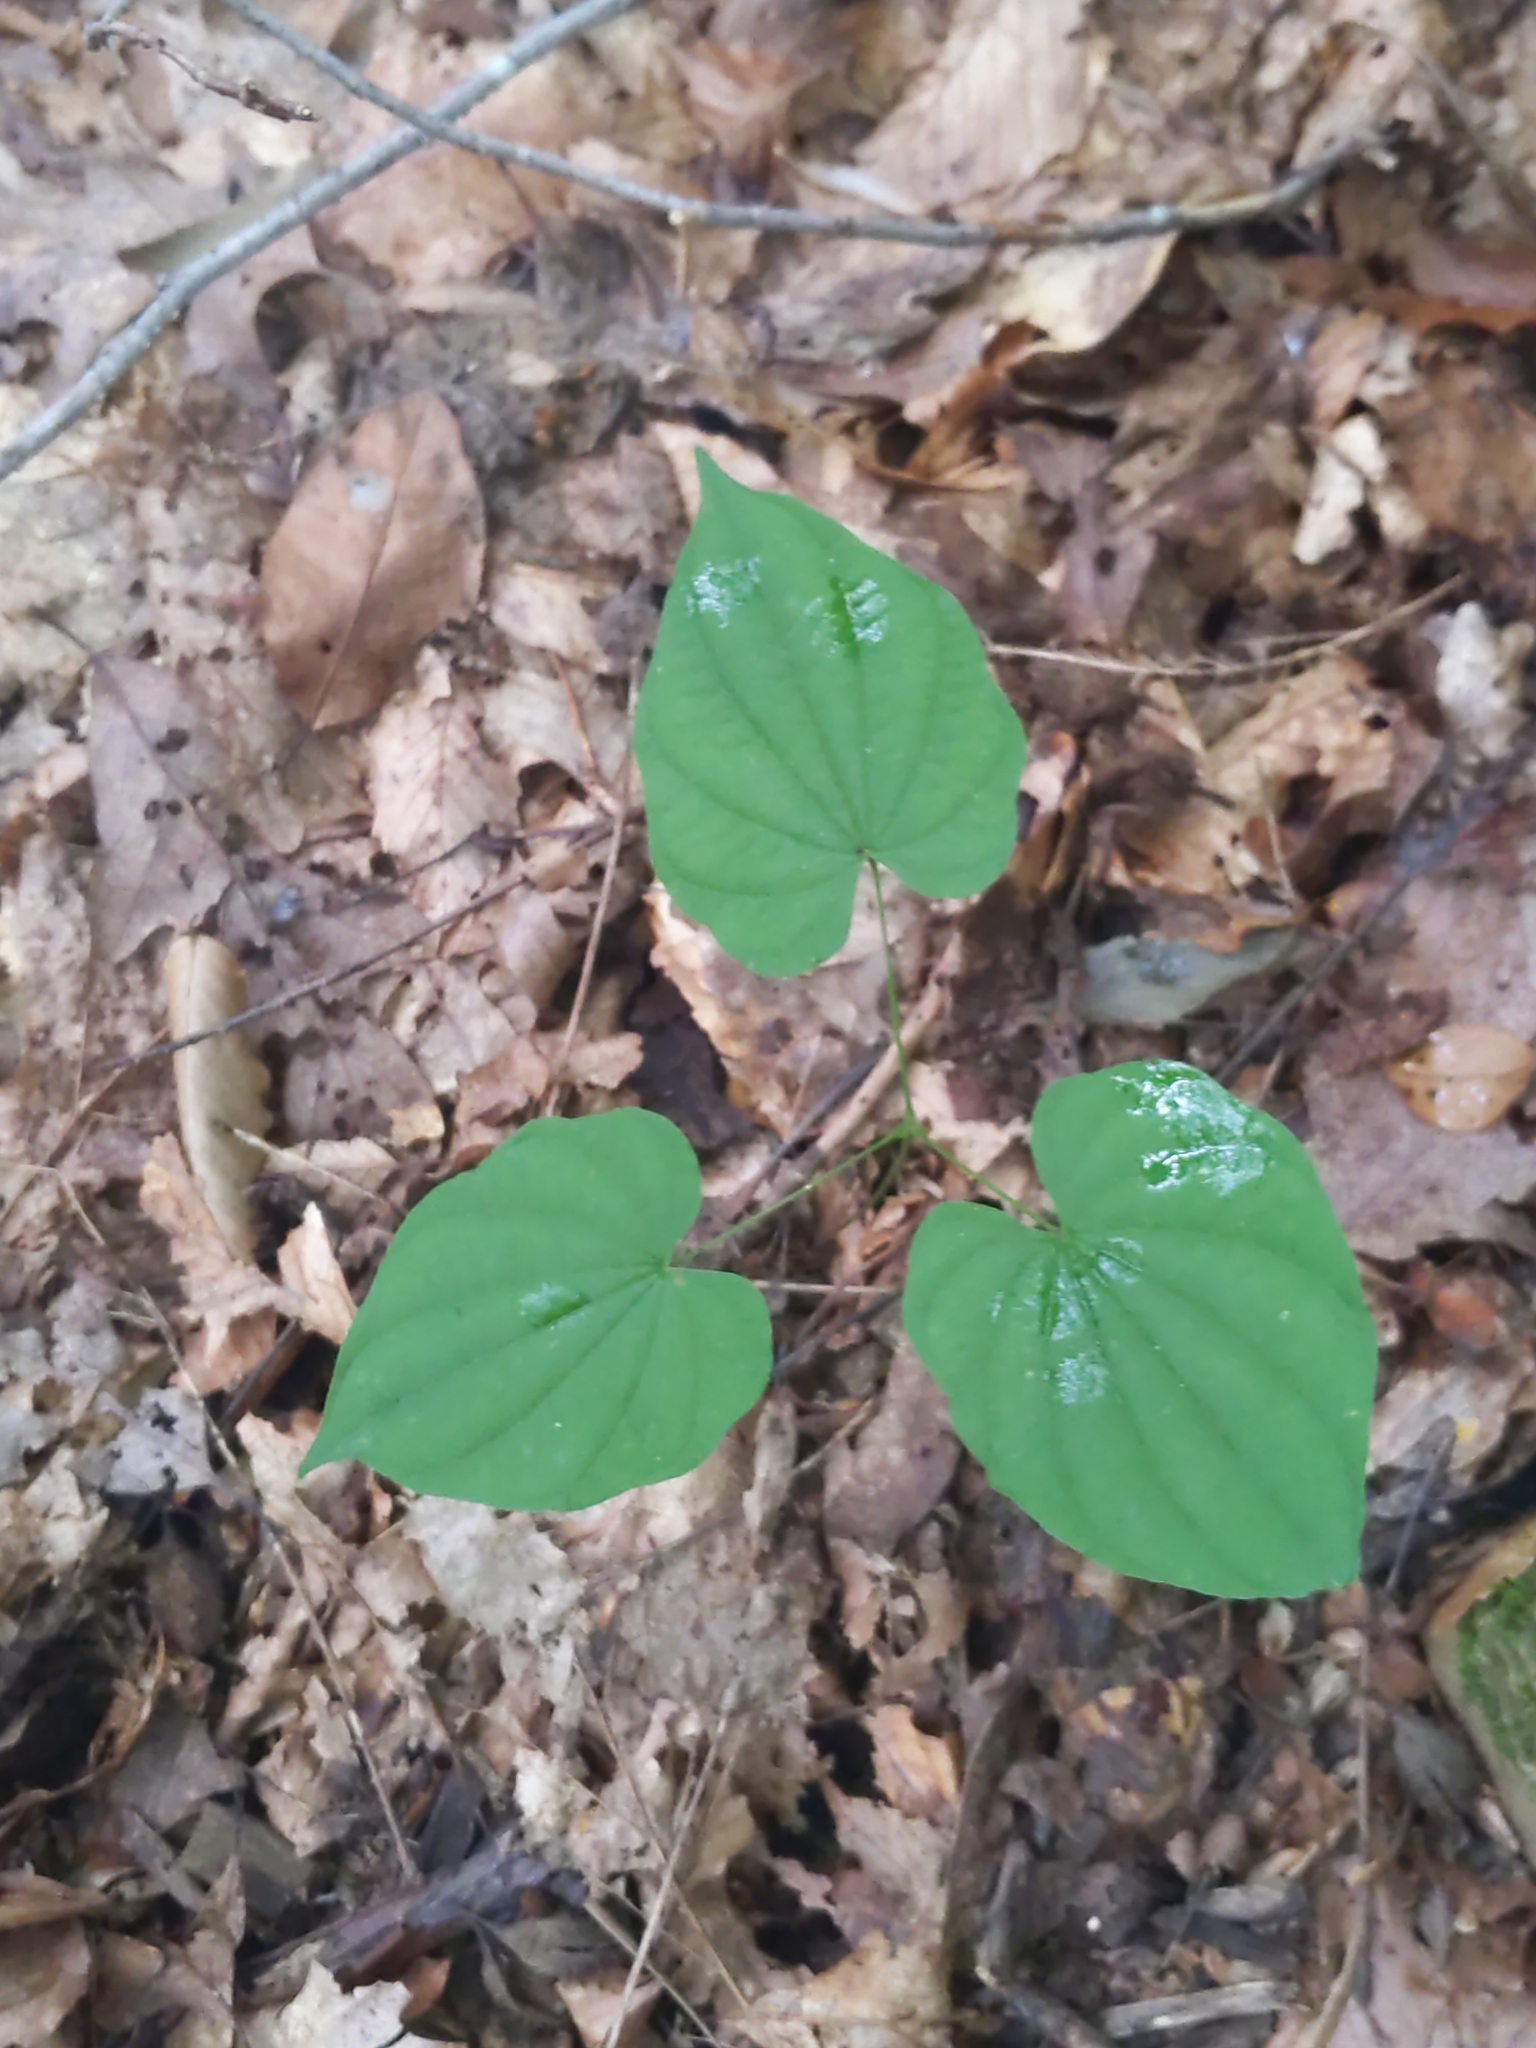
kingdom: Plantae
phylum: Tracheophyta
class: Liliopsida
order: Dioscoreales
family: Dioscoreaceae
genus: Dioscorea
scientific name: Dioscorea villosa
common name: Wild yam
